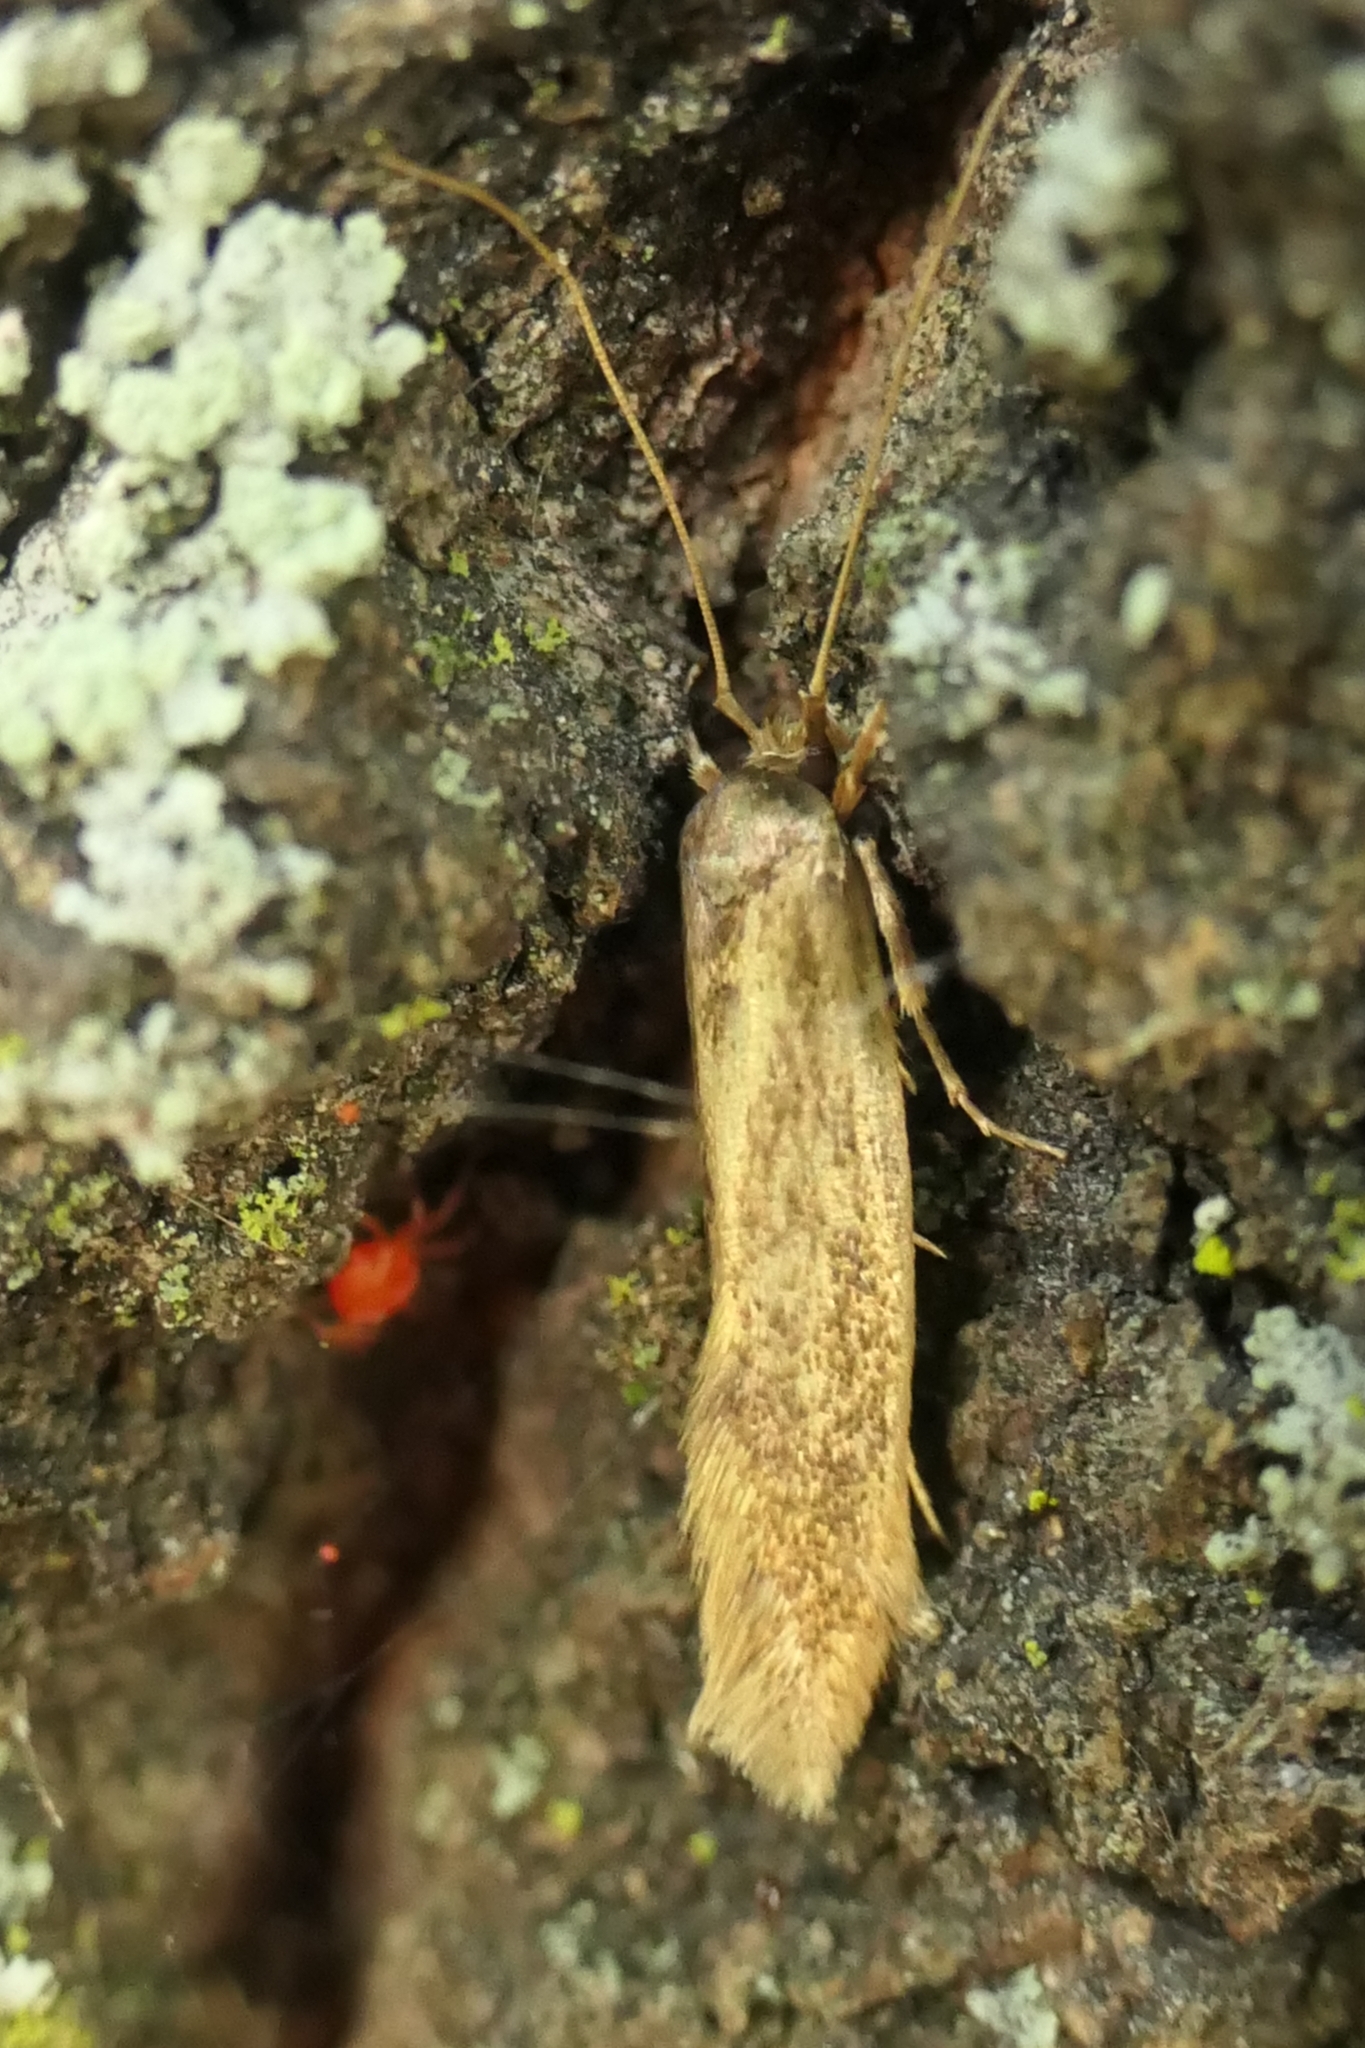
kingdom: Animalia
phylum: Arthropoda
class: Insecta
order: Lepidoptera
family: Tineidae
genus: Opogona
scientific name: Opogona omoscopa
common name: Moth
